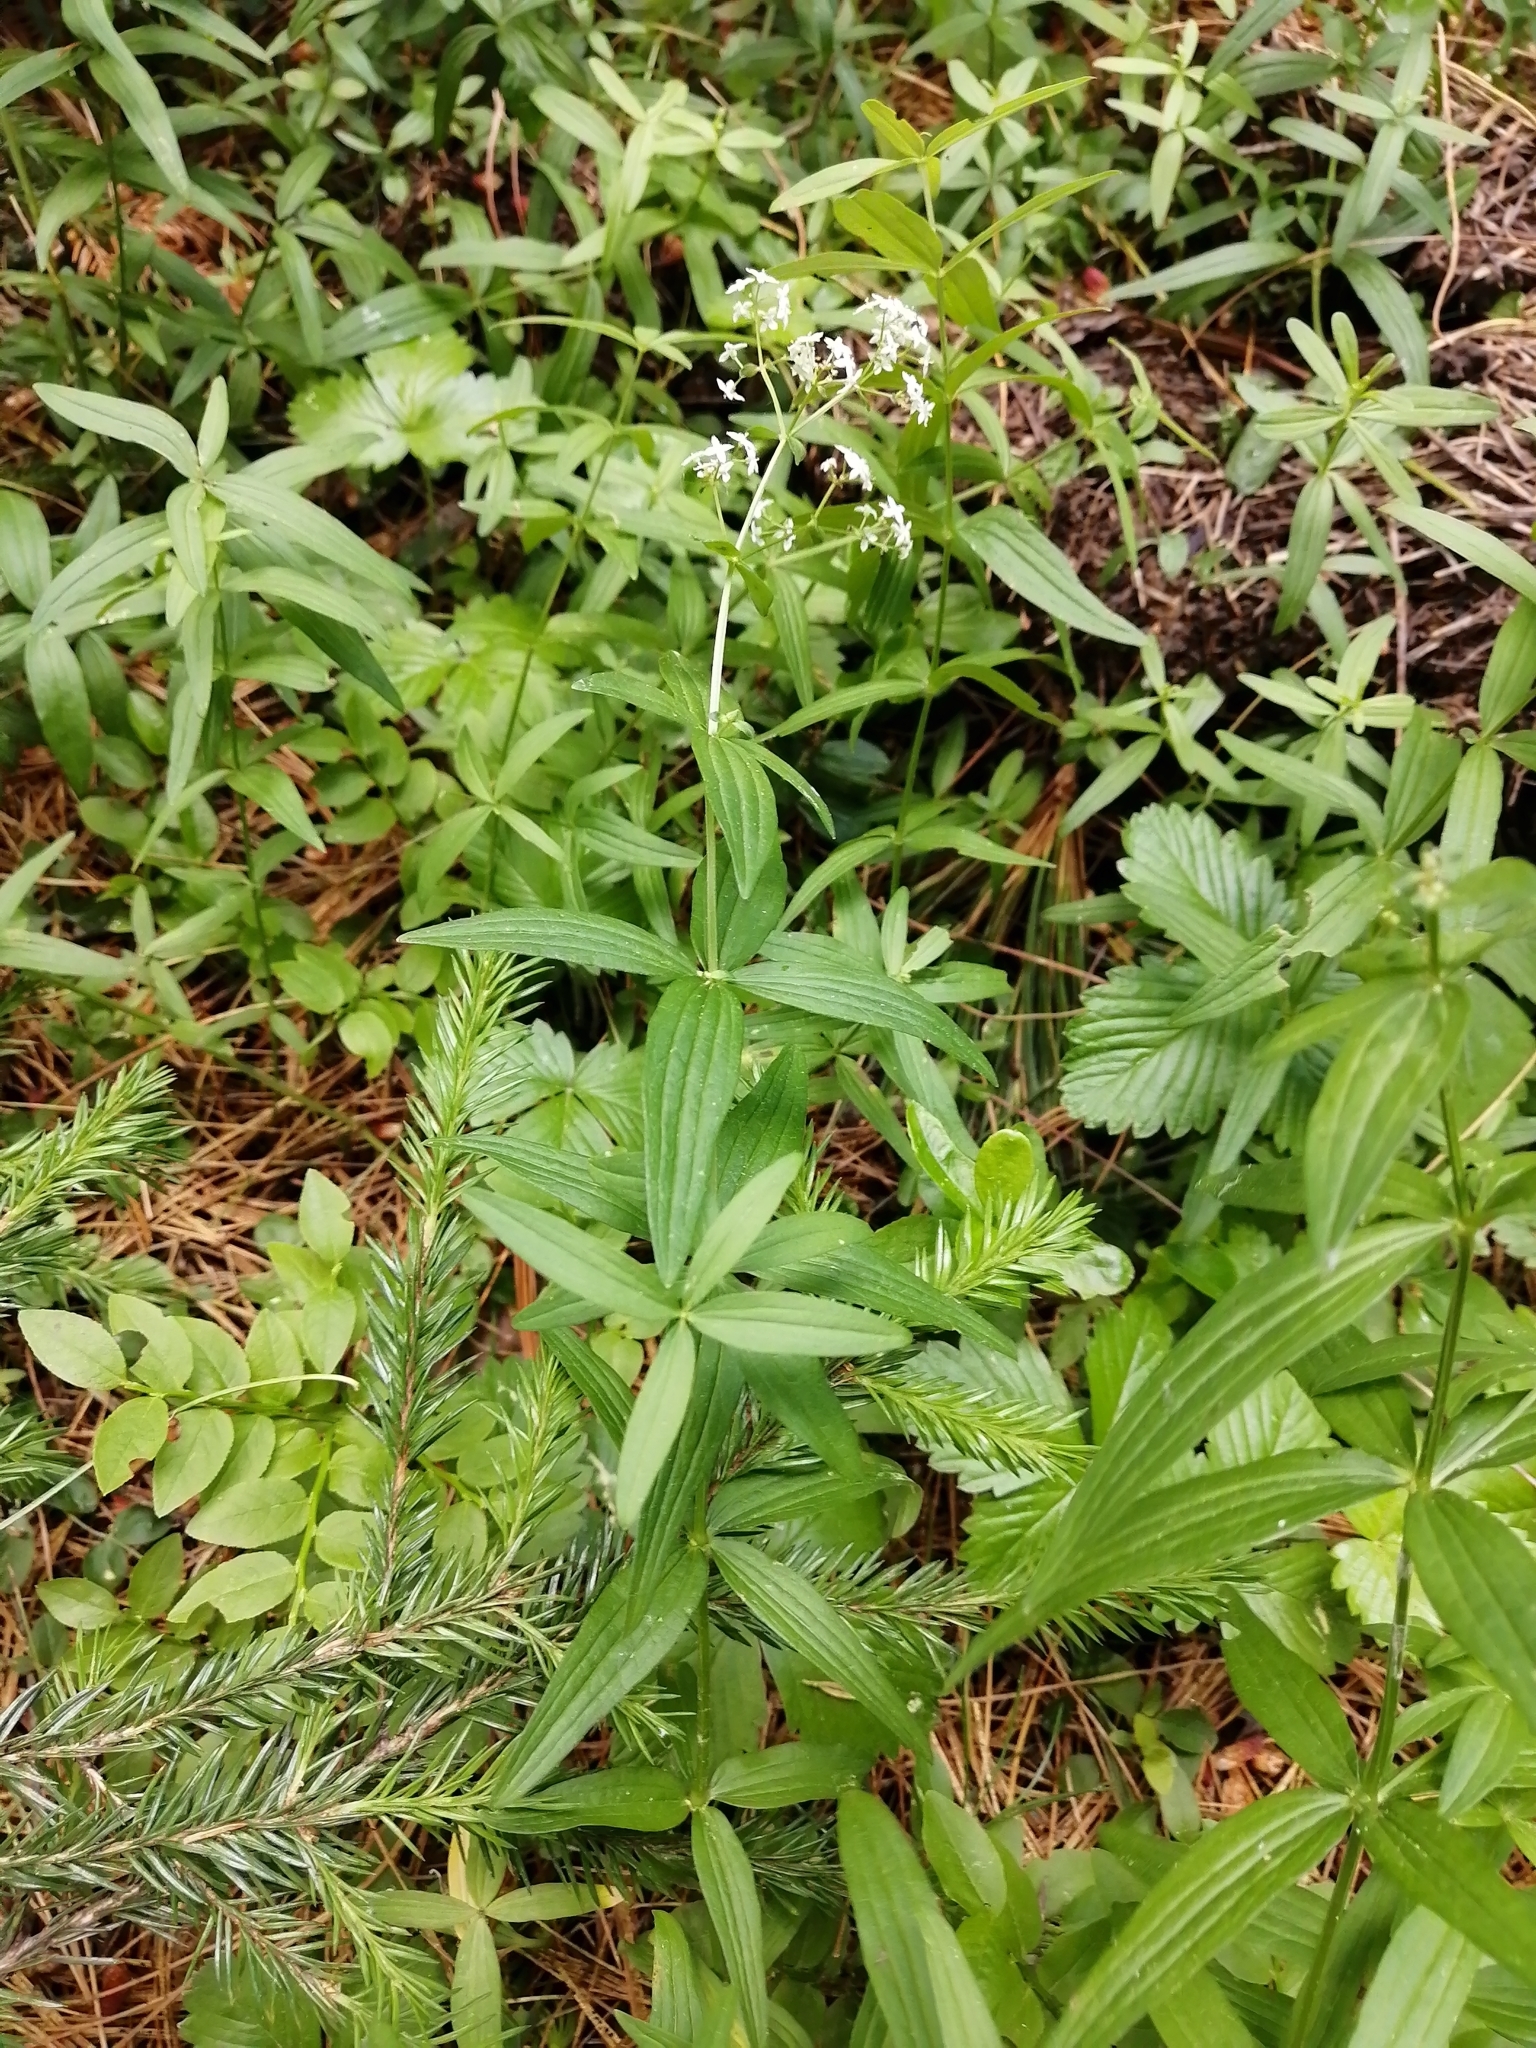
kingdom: Plantae
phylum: Tracheophyta
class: Magnoliopsida
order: Gentianales
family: Rubiaceae
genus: Galium
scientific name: Galium boreale
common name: Northern bedstraw
